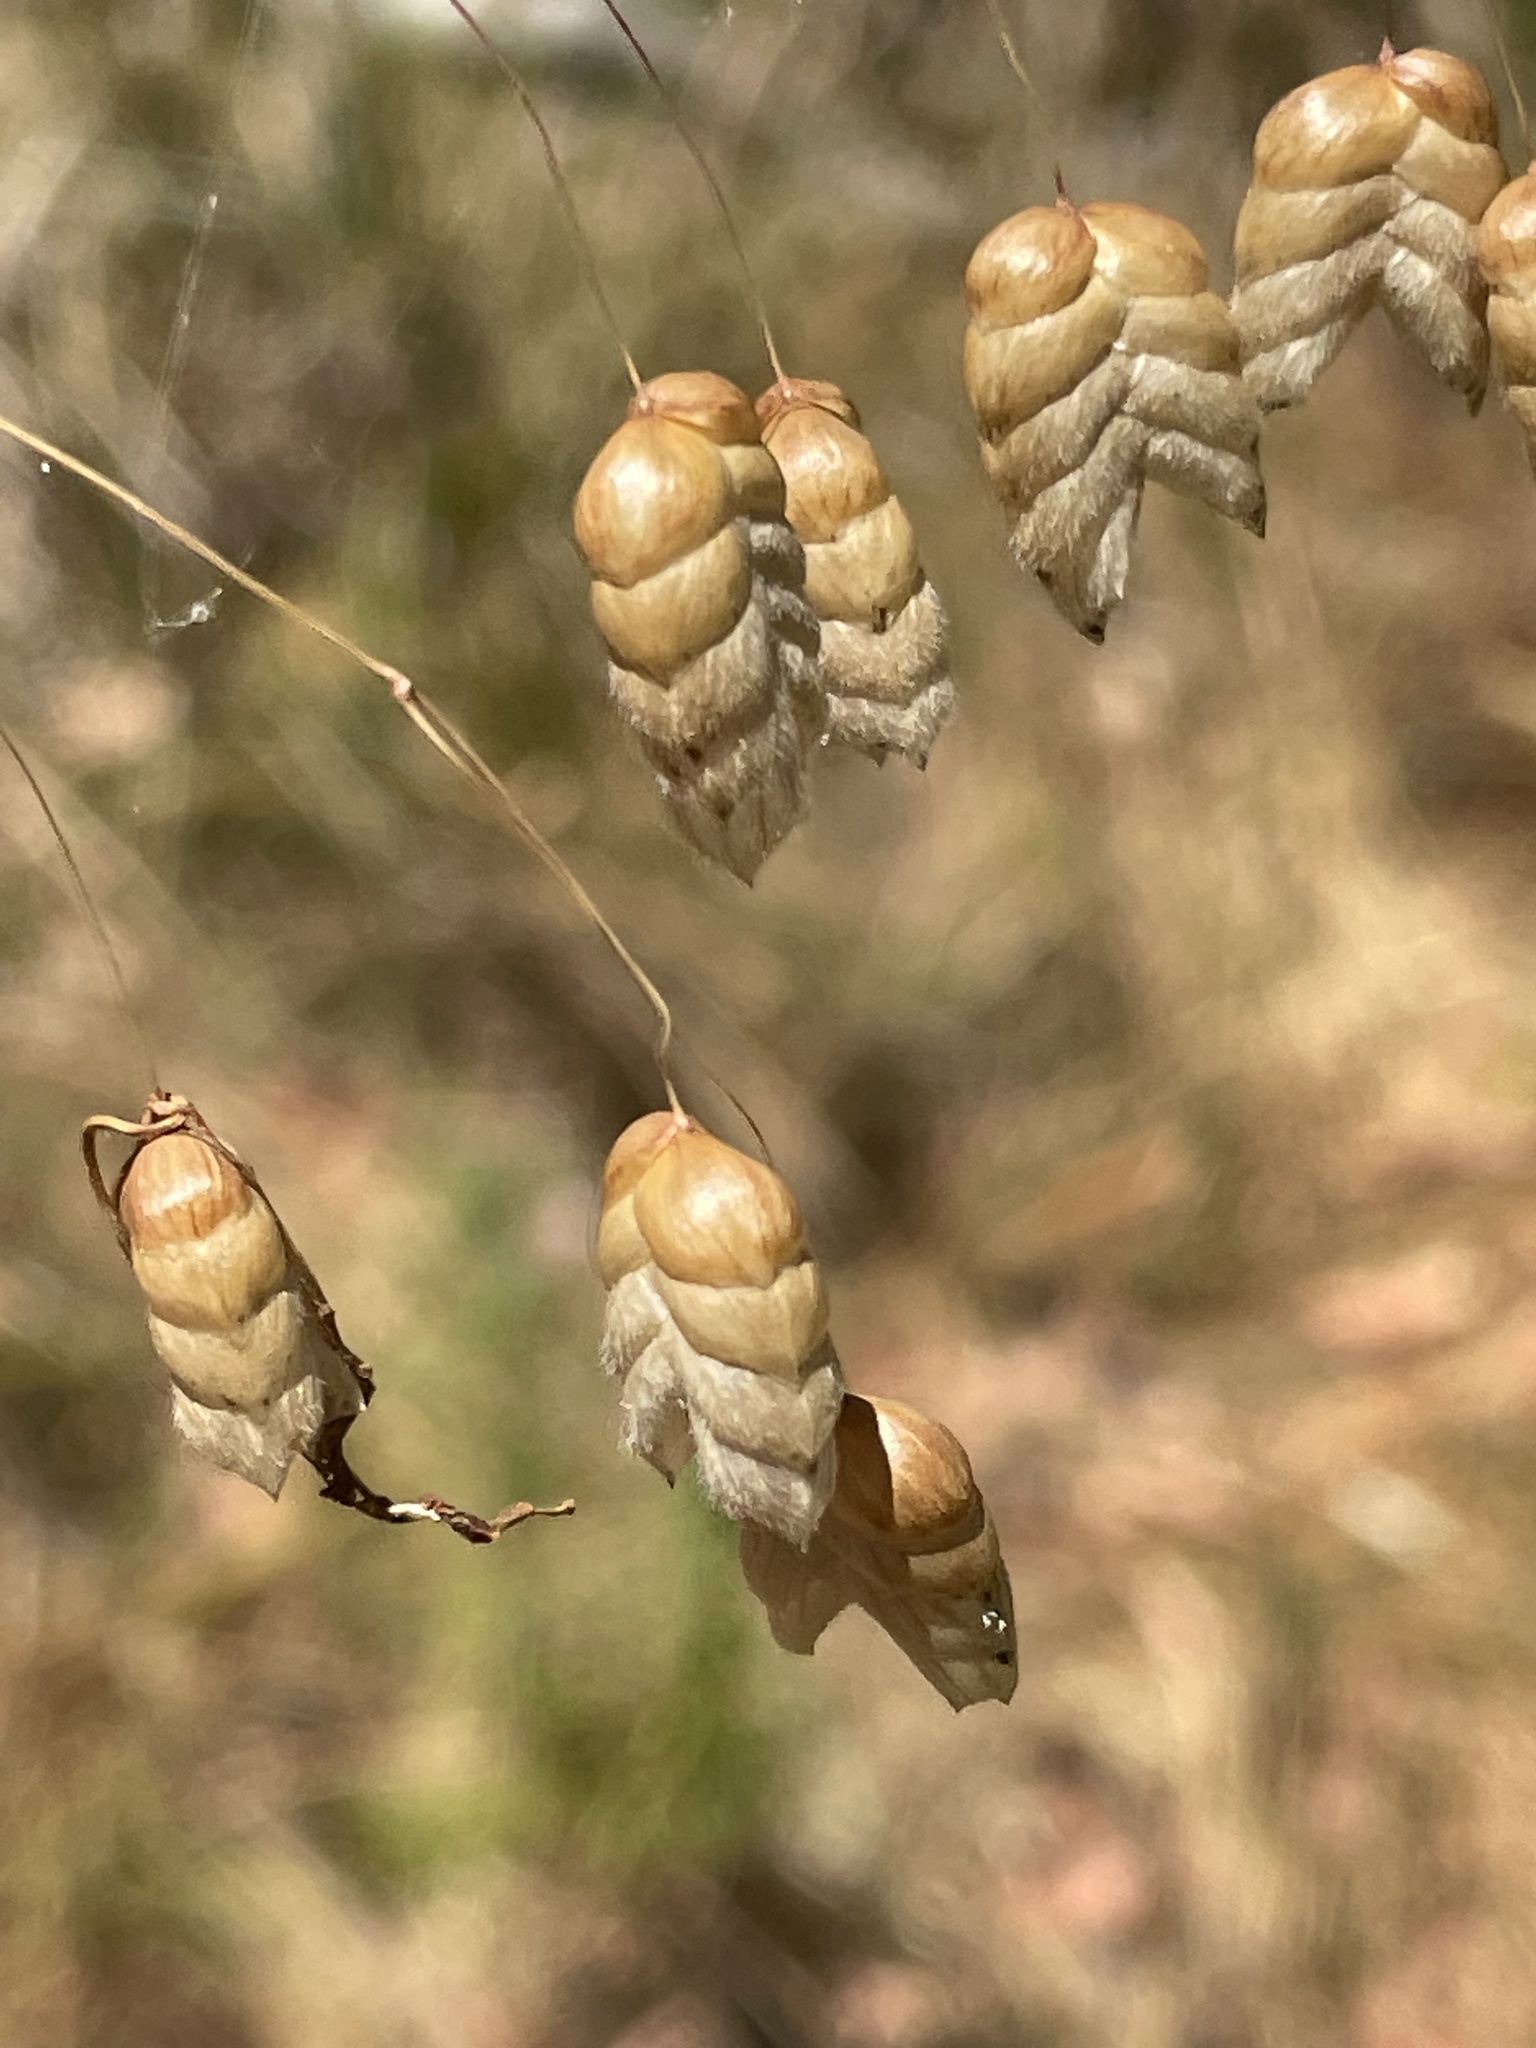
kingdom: Plantae
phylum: Tracheophyta
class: Liliopsida
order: Poales
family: Poaceae
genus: Briza
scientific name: Briza maxima
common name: Big quakinggrass
